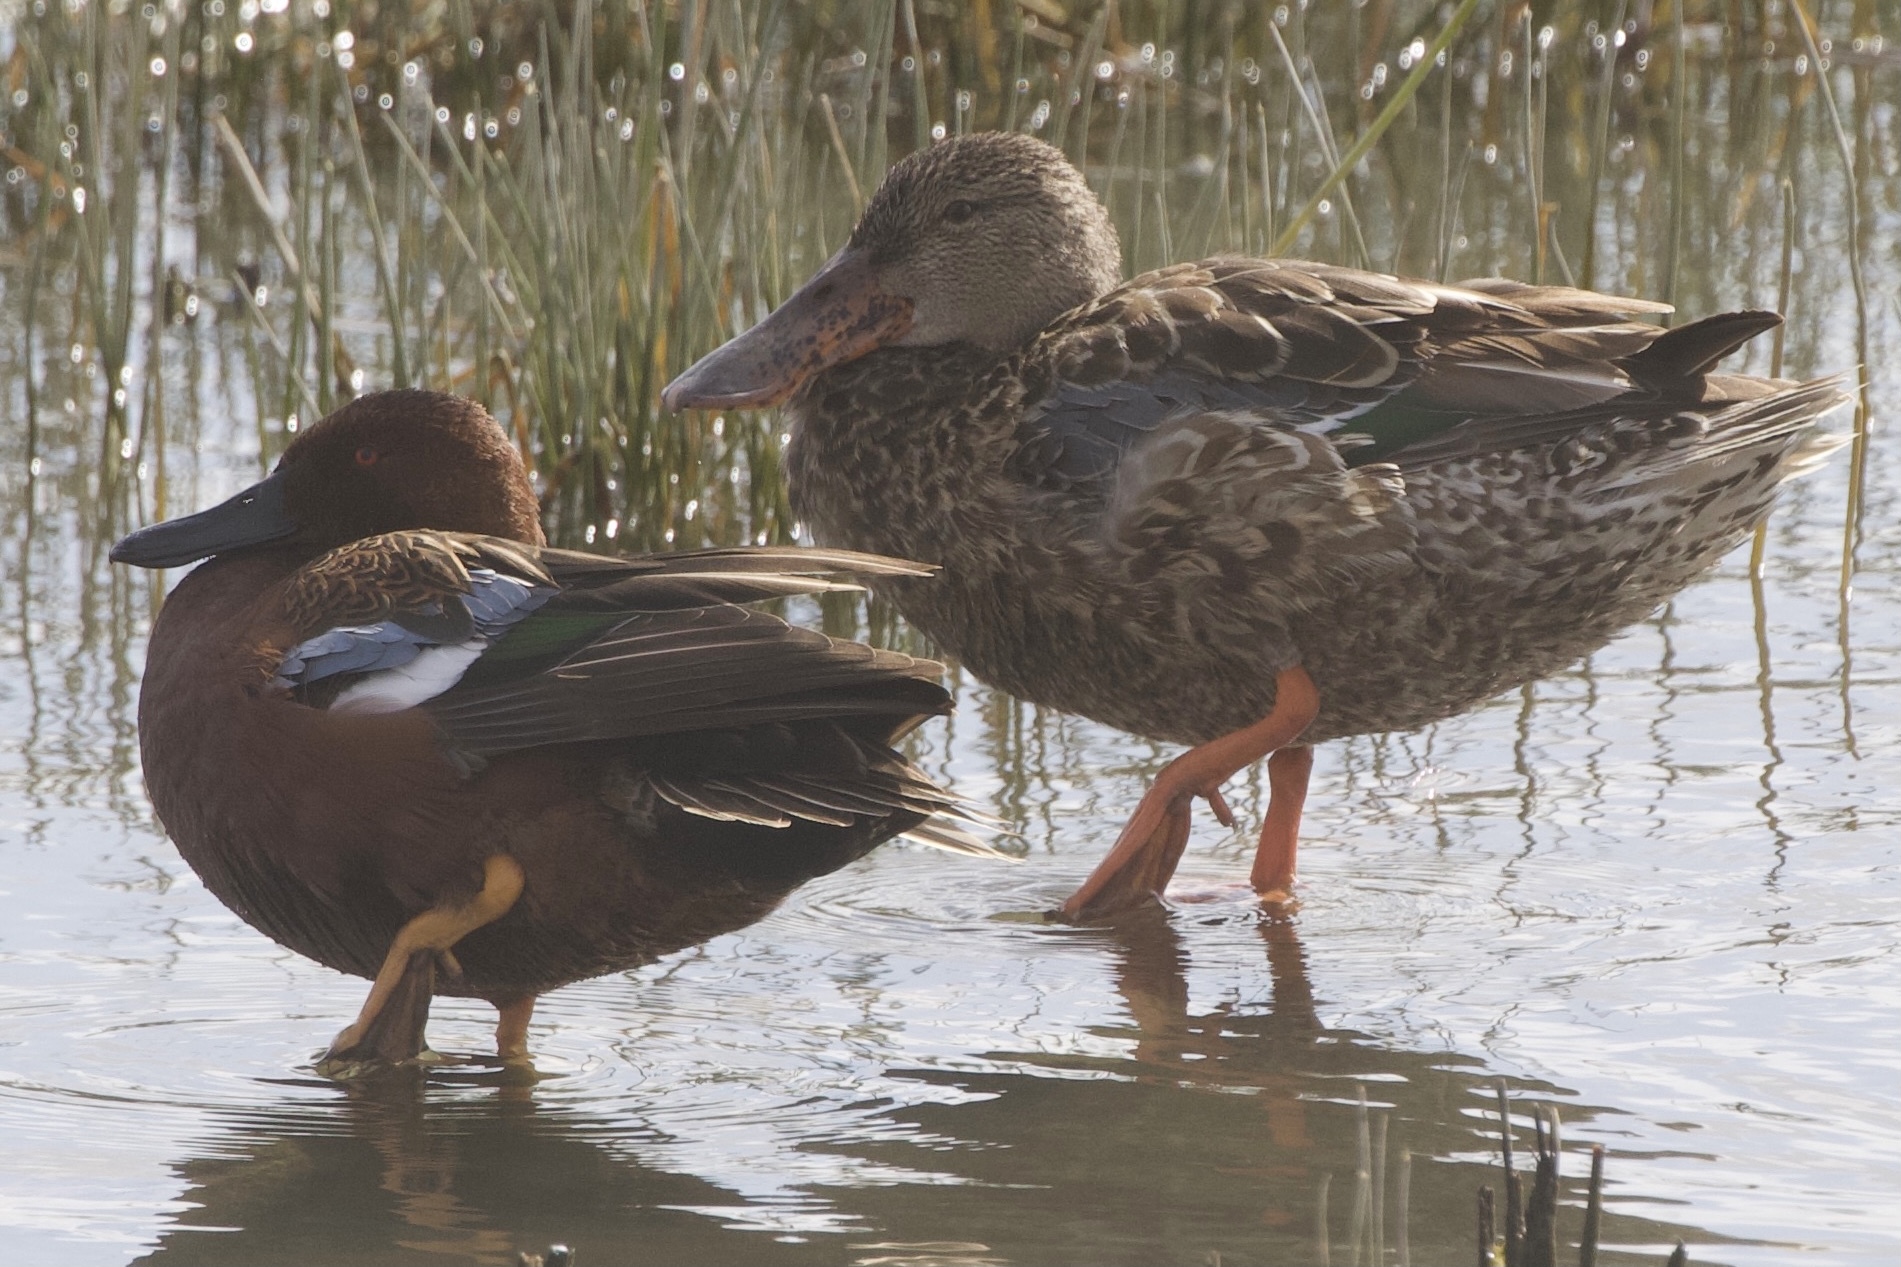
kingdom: Animalia
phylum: Chordata
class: Aves
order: Anseriformes
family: Anatidae
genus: Spatula
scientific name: Spatula cyanoptera
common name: Cinnamon teal
